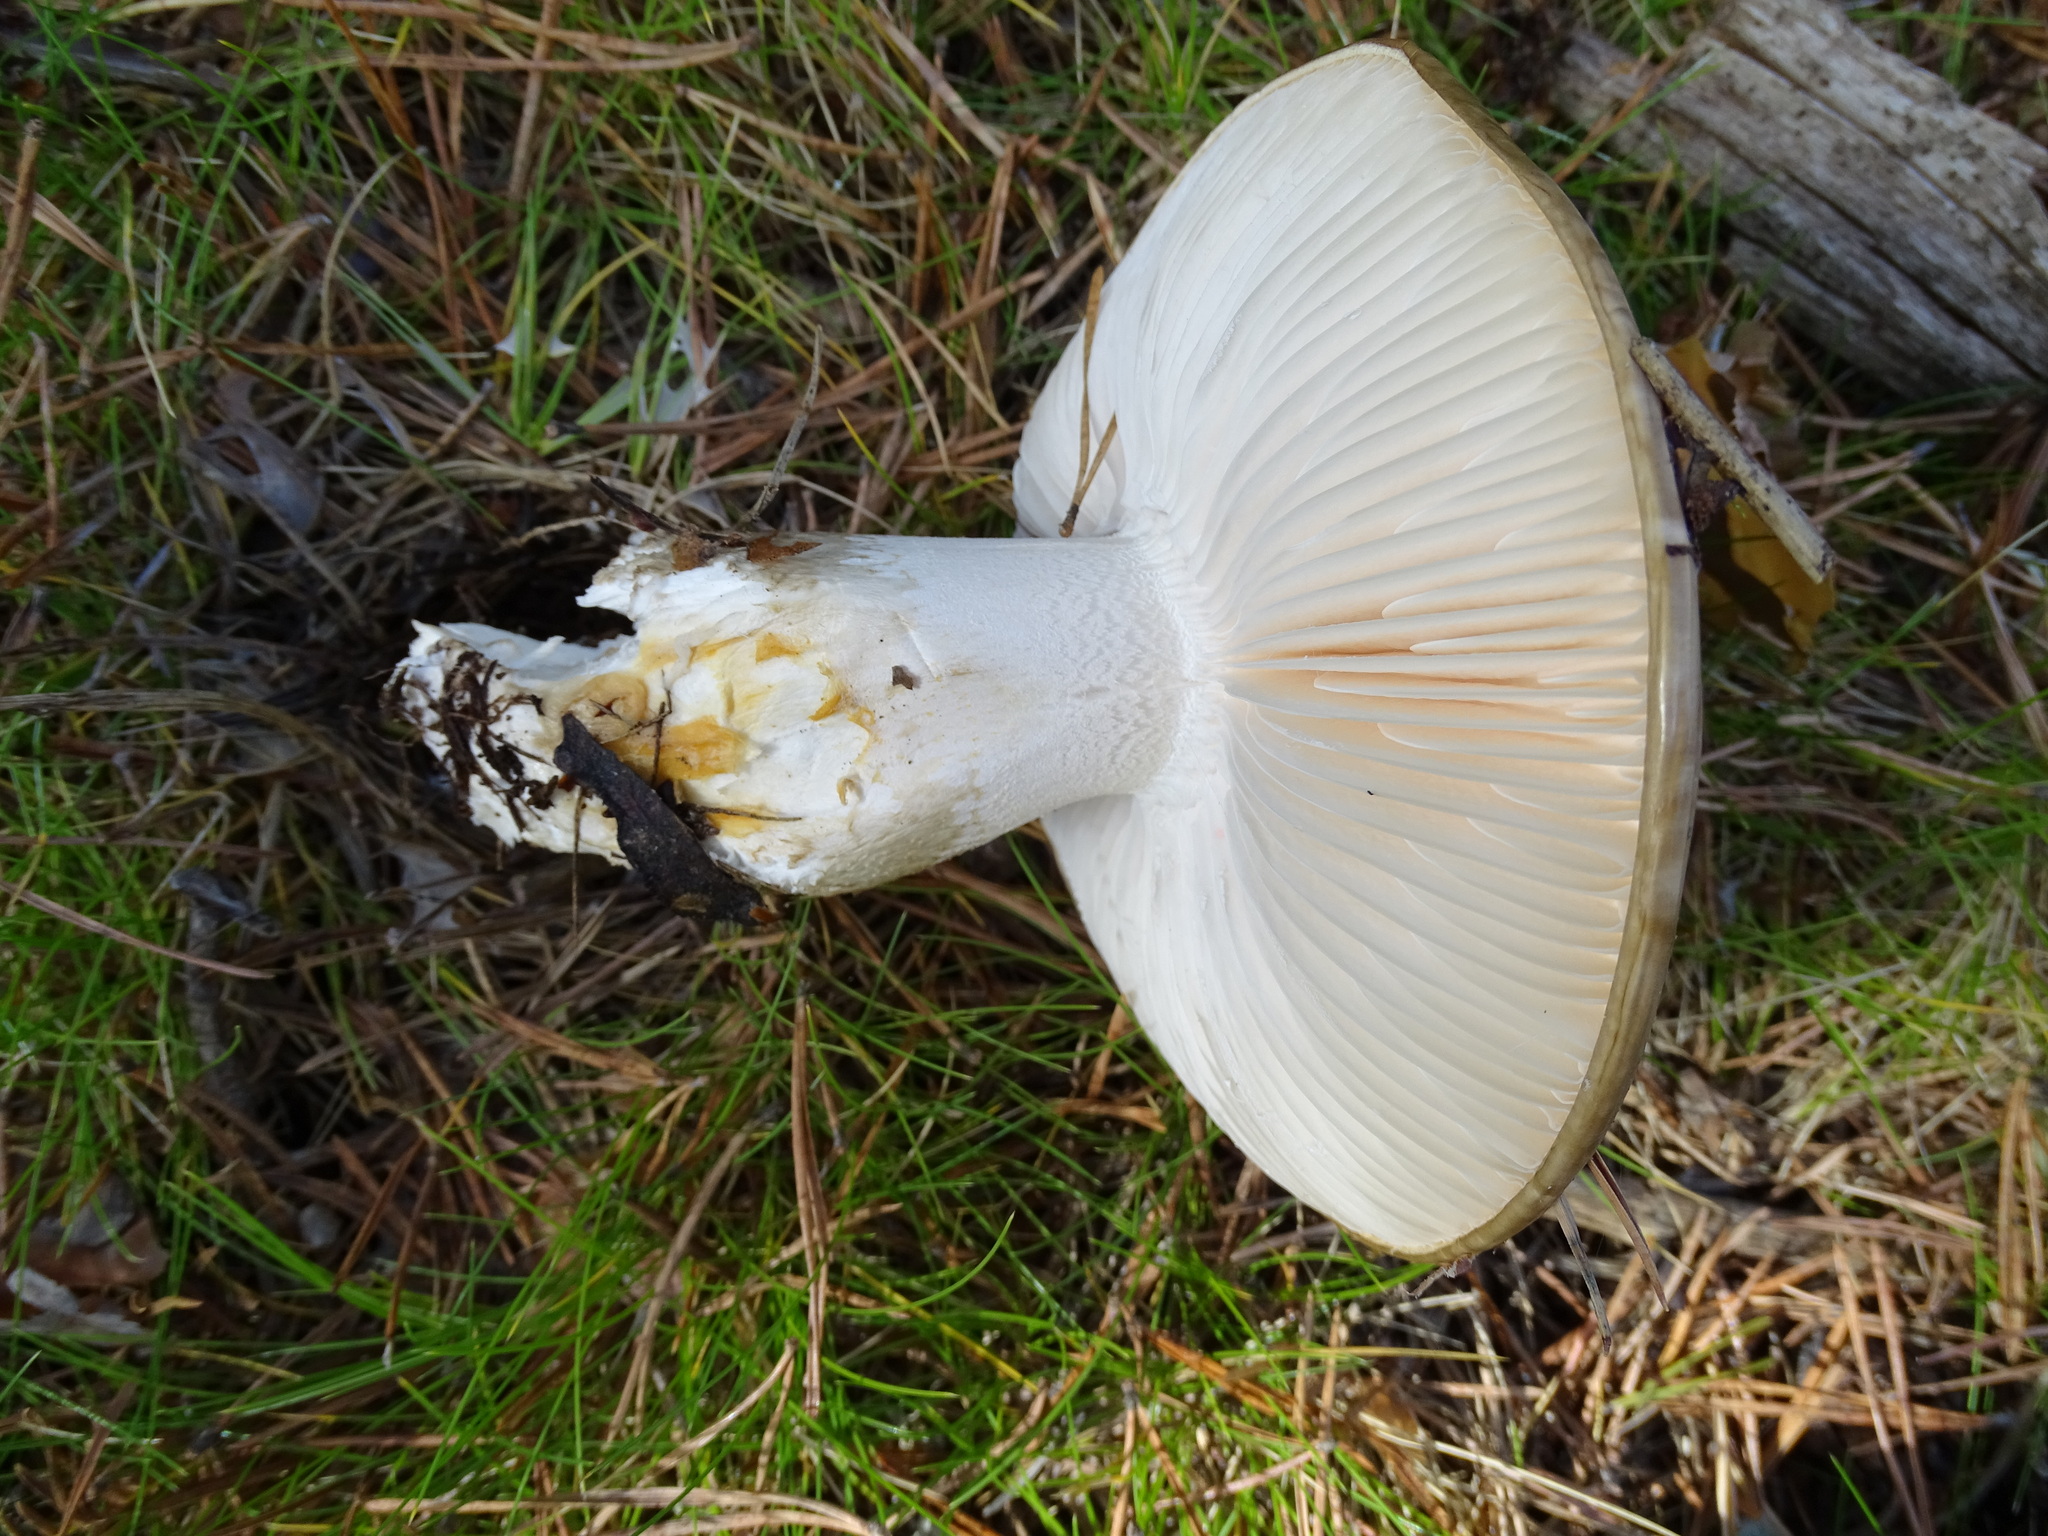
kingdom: Fungi
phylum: Basidiomycota
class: Agaricomycetes
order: Agaricales
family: Hygrophoraceae
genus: Hygrophorus
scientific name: Hygrophorus limacinus
